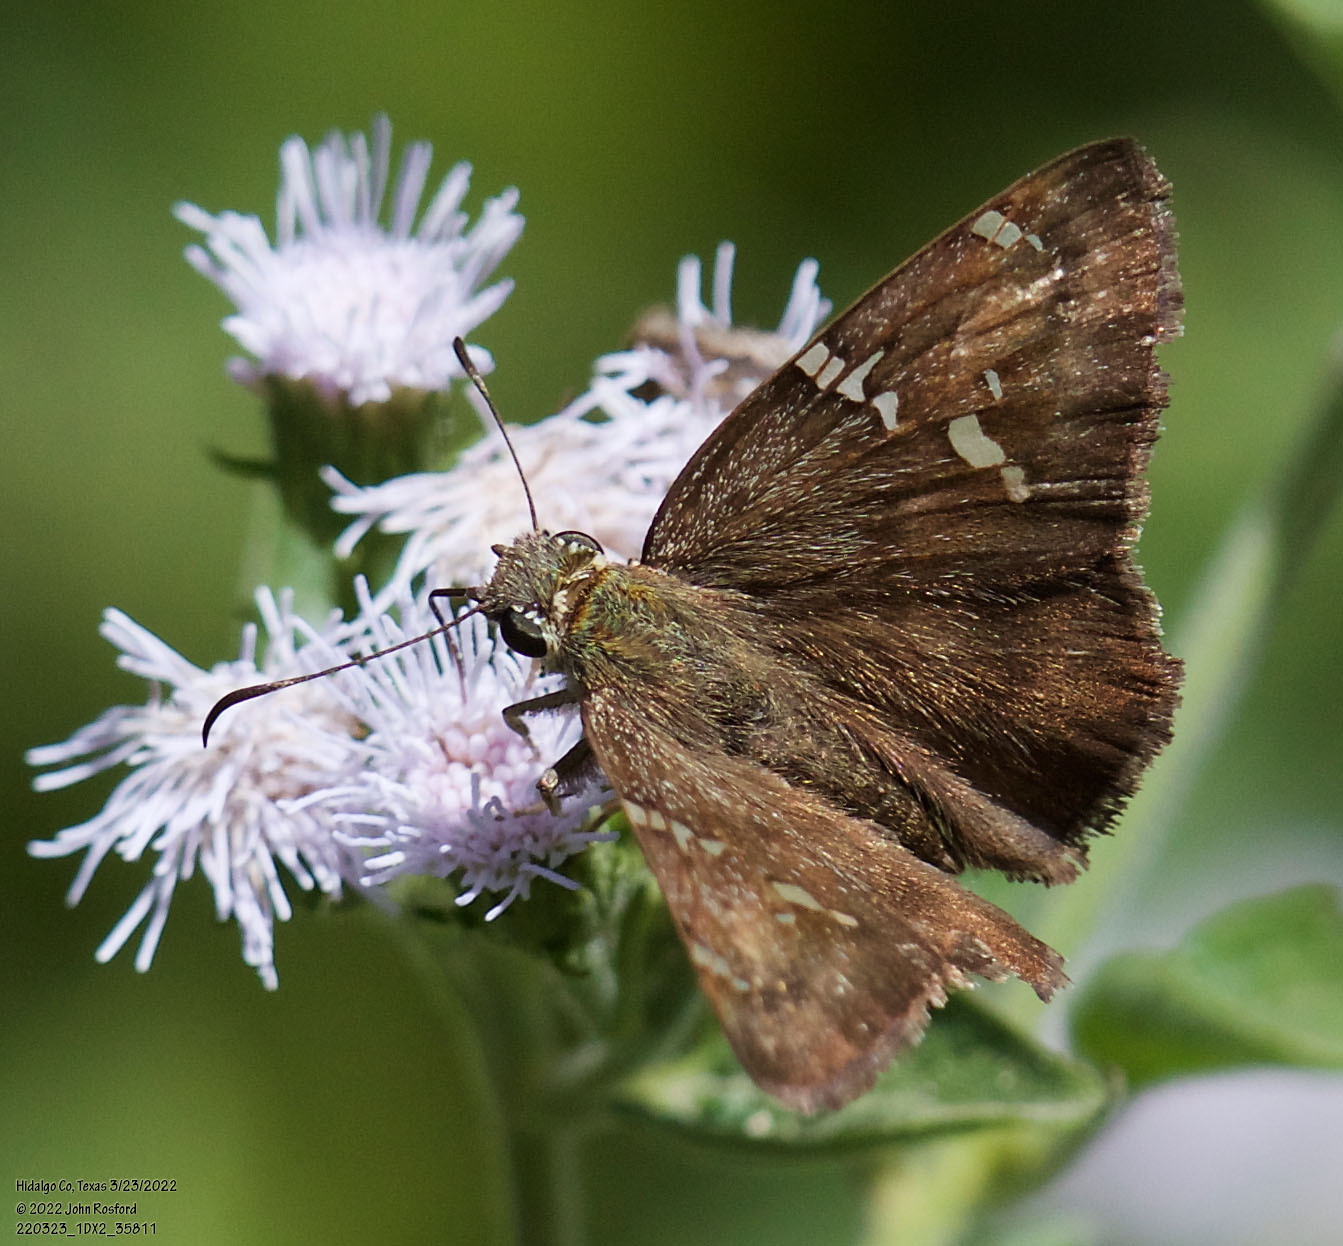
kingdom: Animalia
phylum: Arthropoda
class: Insecta
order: Lepidoptera
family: Hesperiidae
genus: Autochton
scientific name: Autochton potrillo
